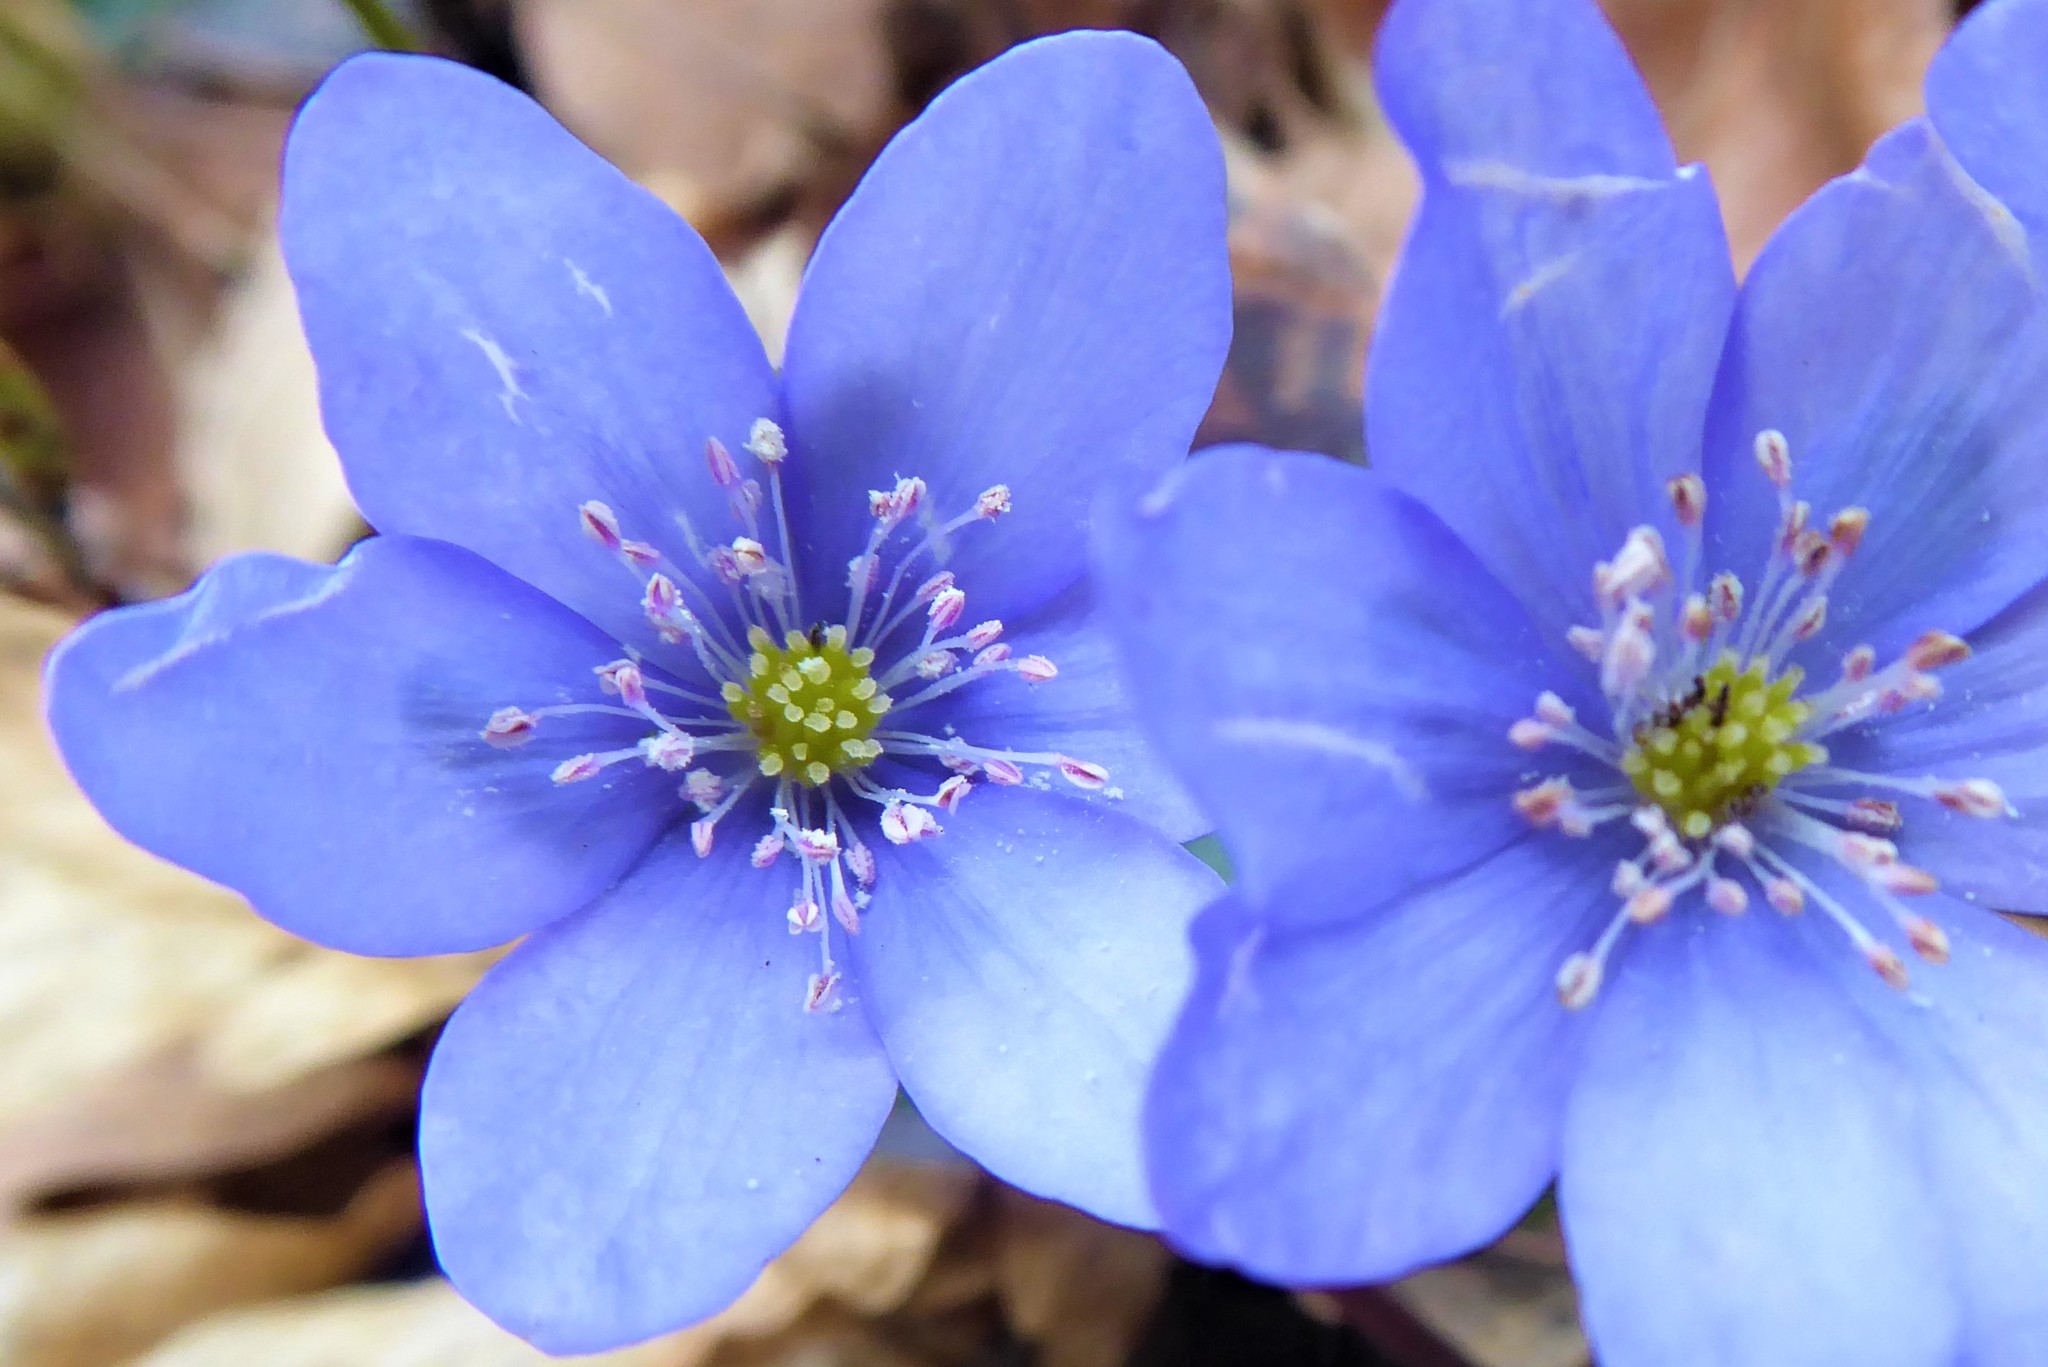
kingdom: Plantae
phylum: Tracheophyta
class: Magnoliopsida
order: Ranunculales
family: Ranunculaceae
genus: Hepatica
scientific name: Hepatica nobilis
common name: Liverleaf
